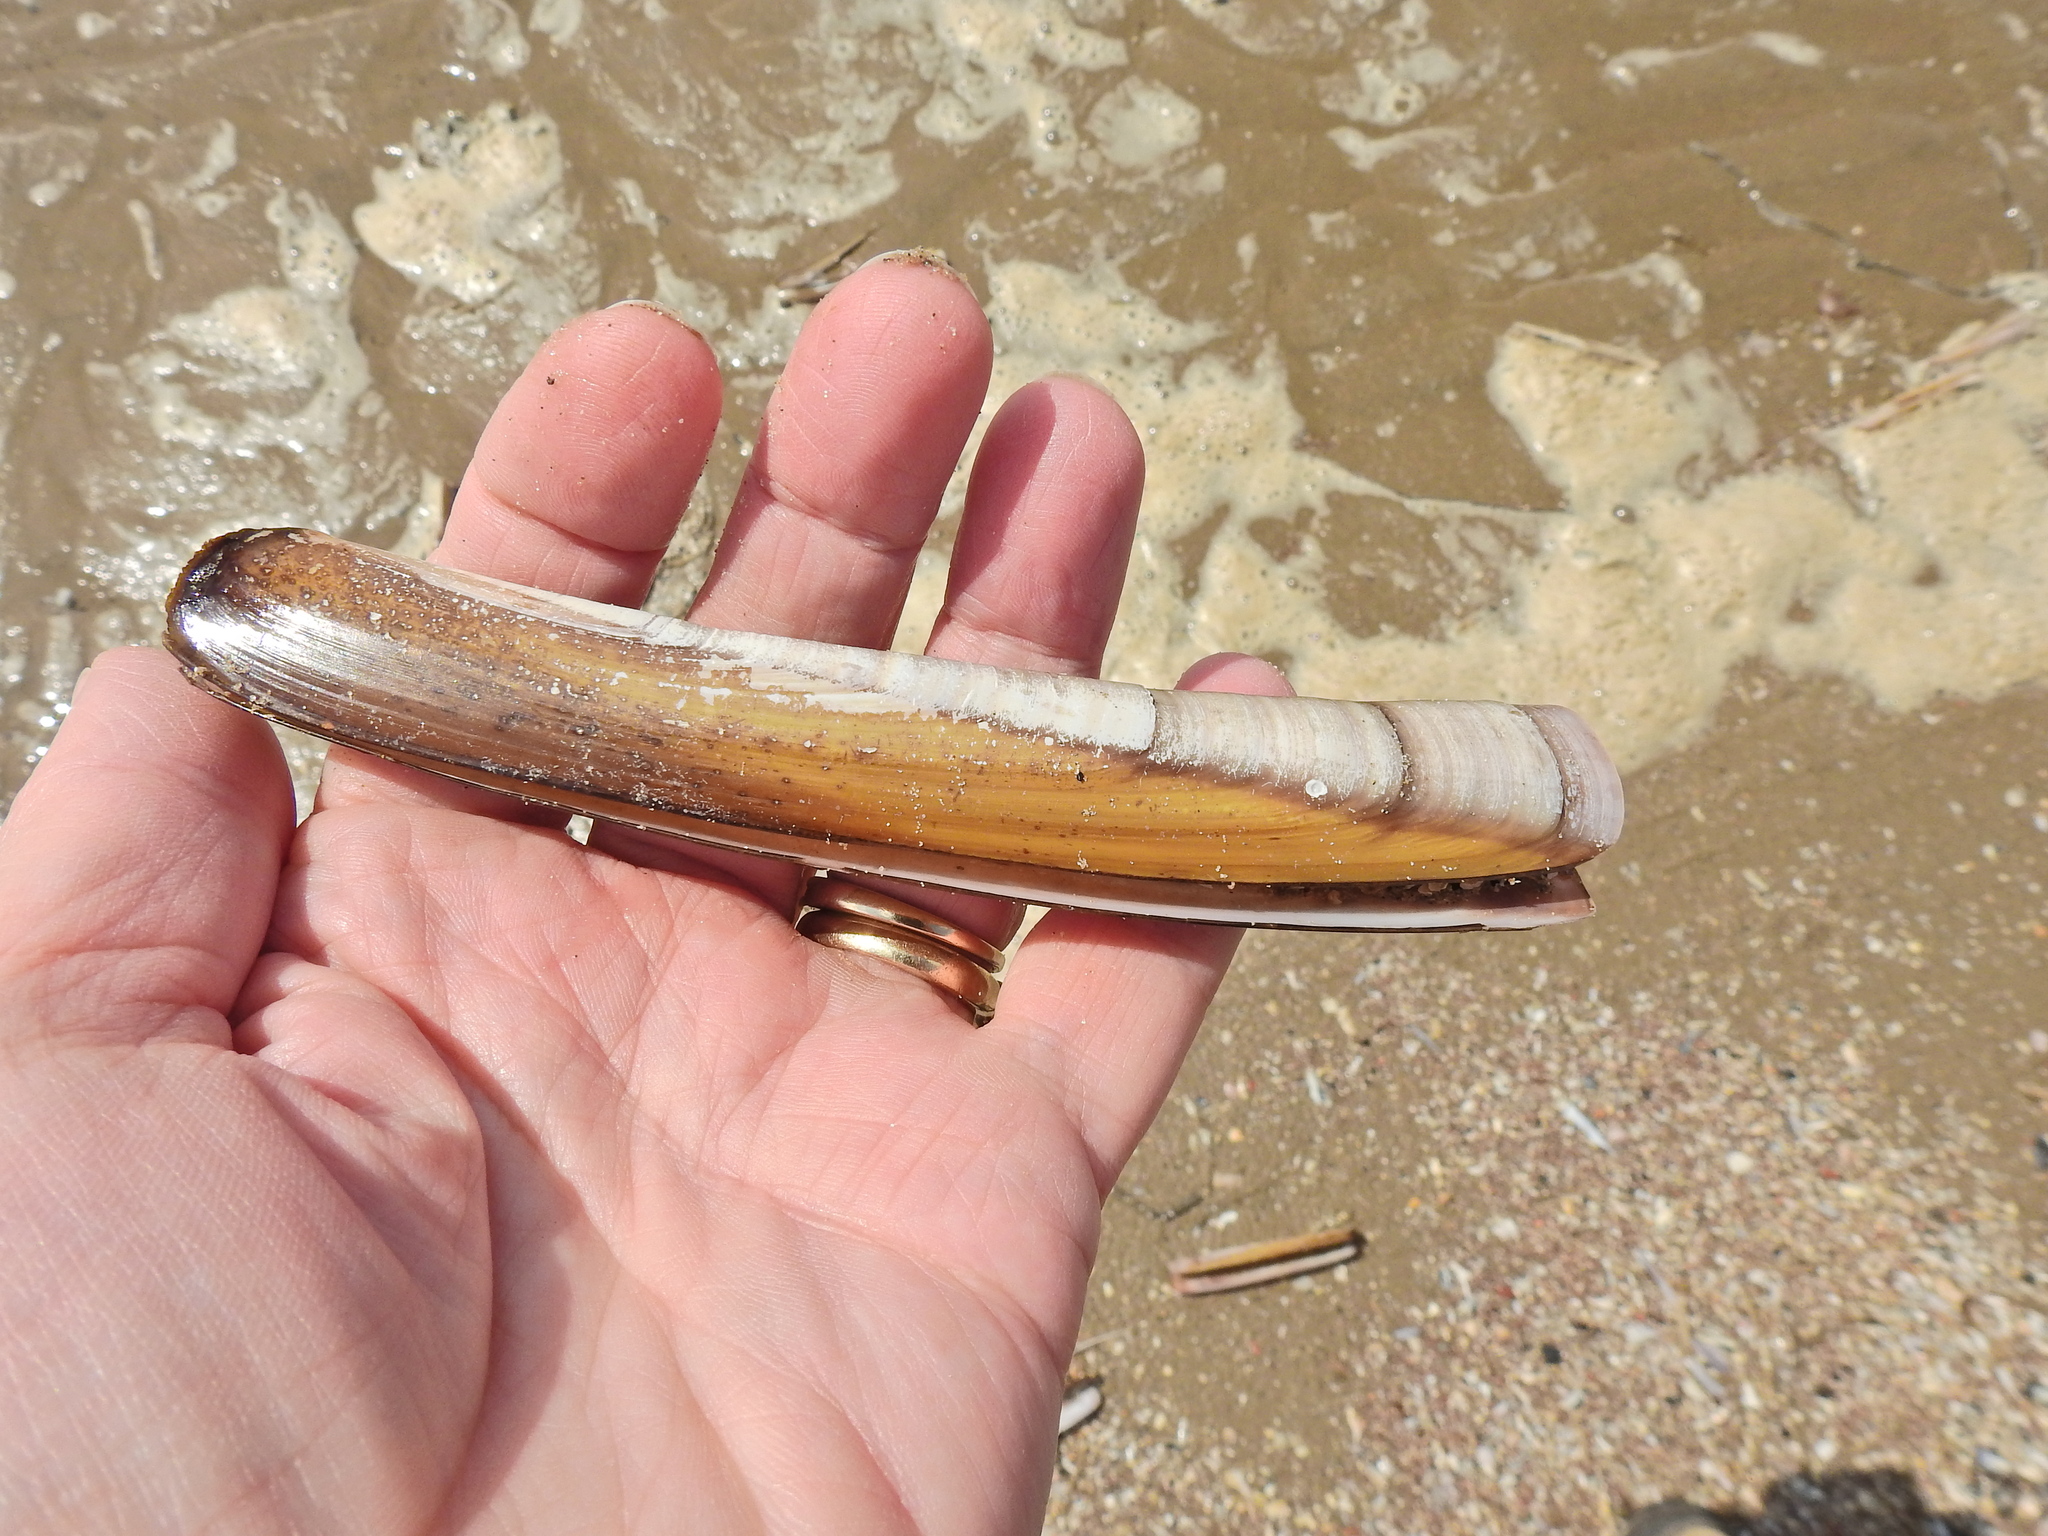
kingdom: Animalia
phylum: Mollusca
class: Bivalvia
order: Adapedonta
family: Pharidae
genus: Ensis
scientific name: Ensis leei
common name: American jack knife clam
